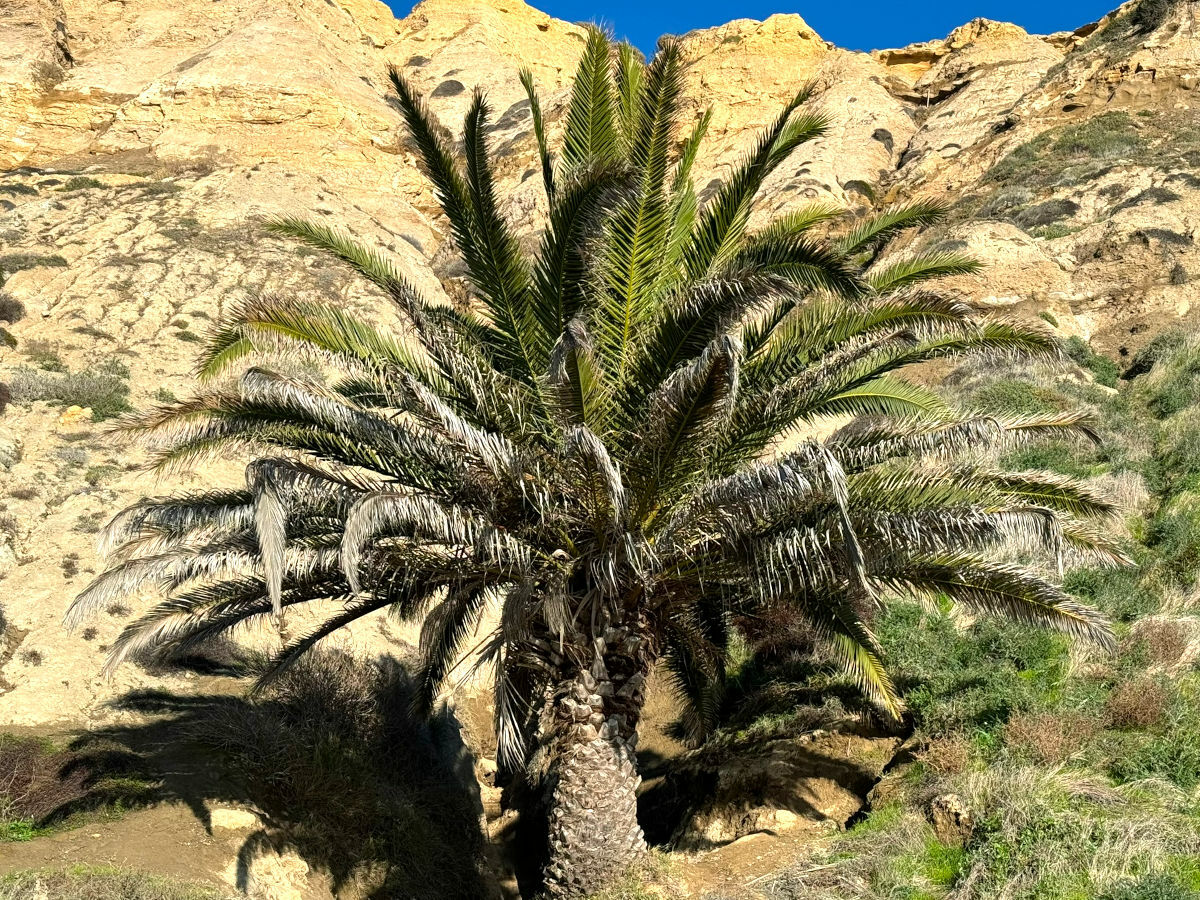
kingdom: Plantae
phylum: Tracheophyta
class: Liliopsida
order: Arecales
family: Arecaceae
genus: Phoenix
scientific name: Phoenix canariensis
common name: Canary island date palm
